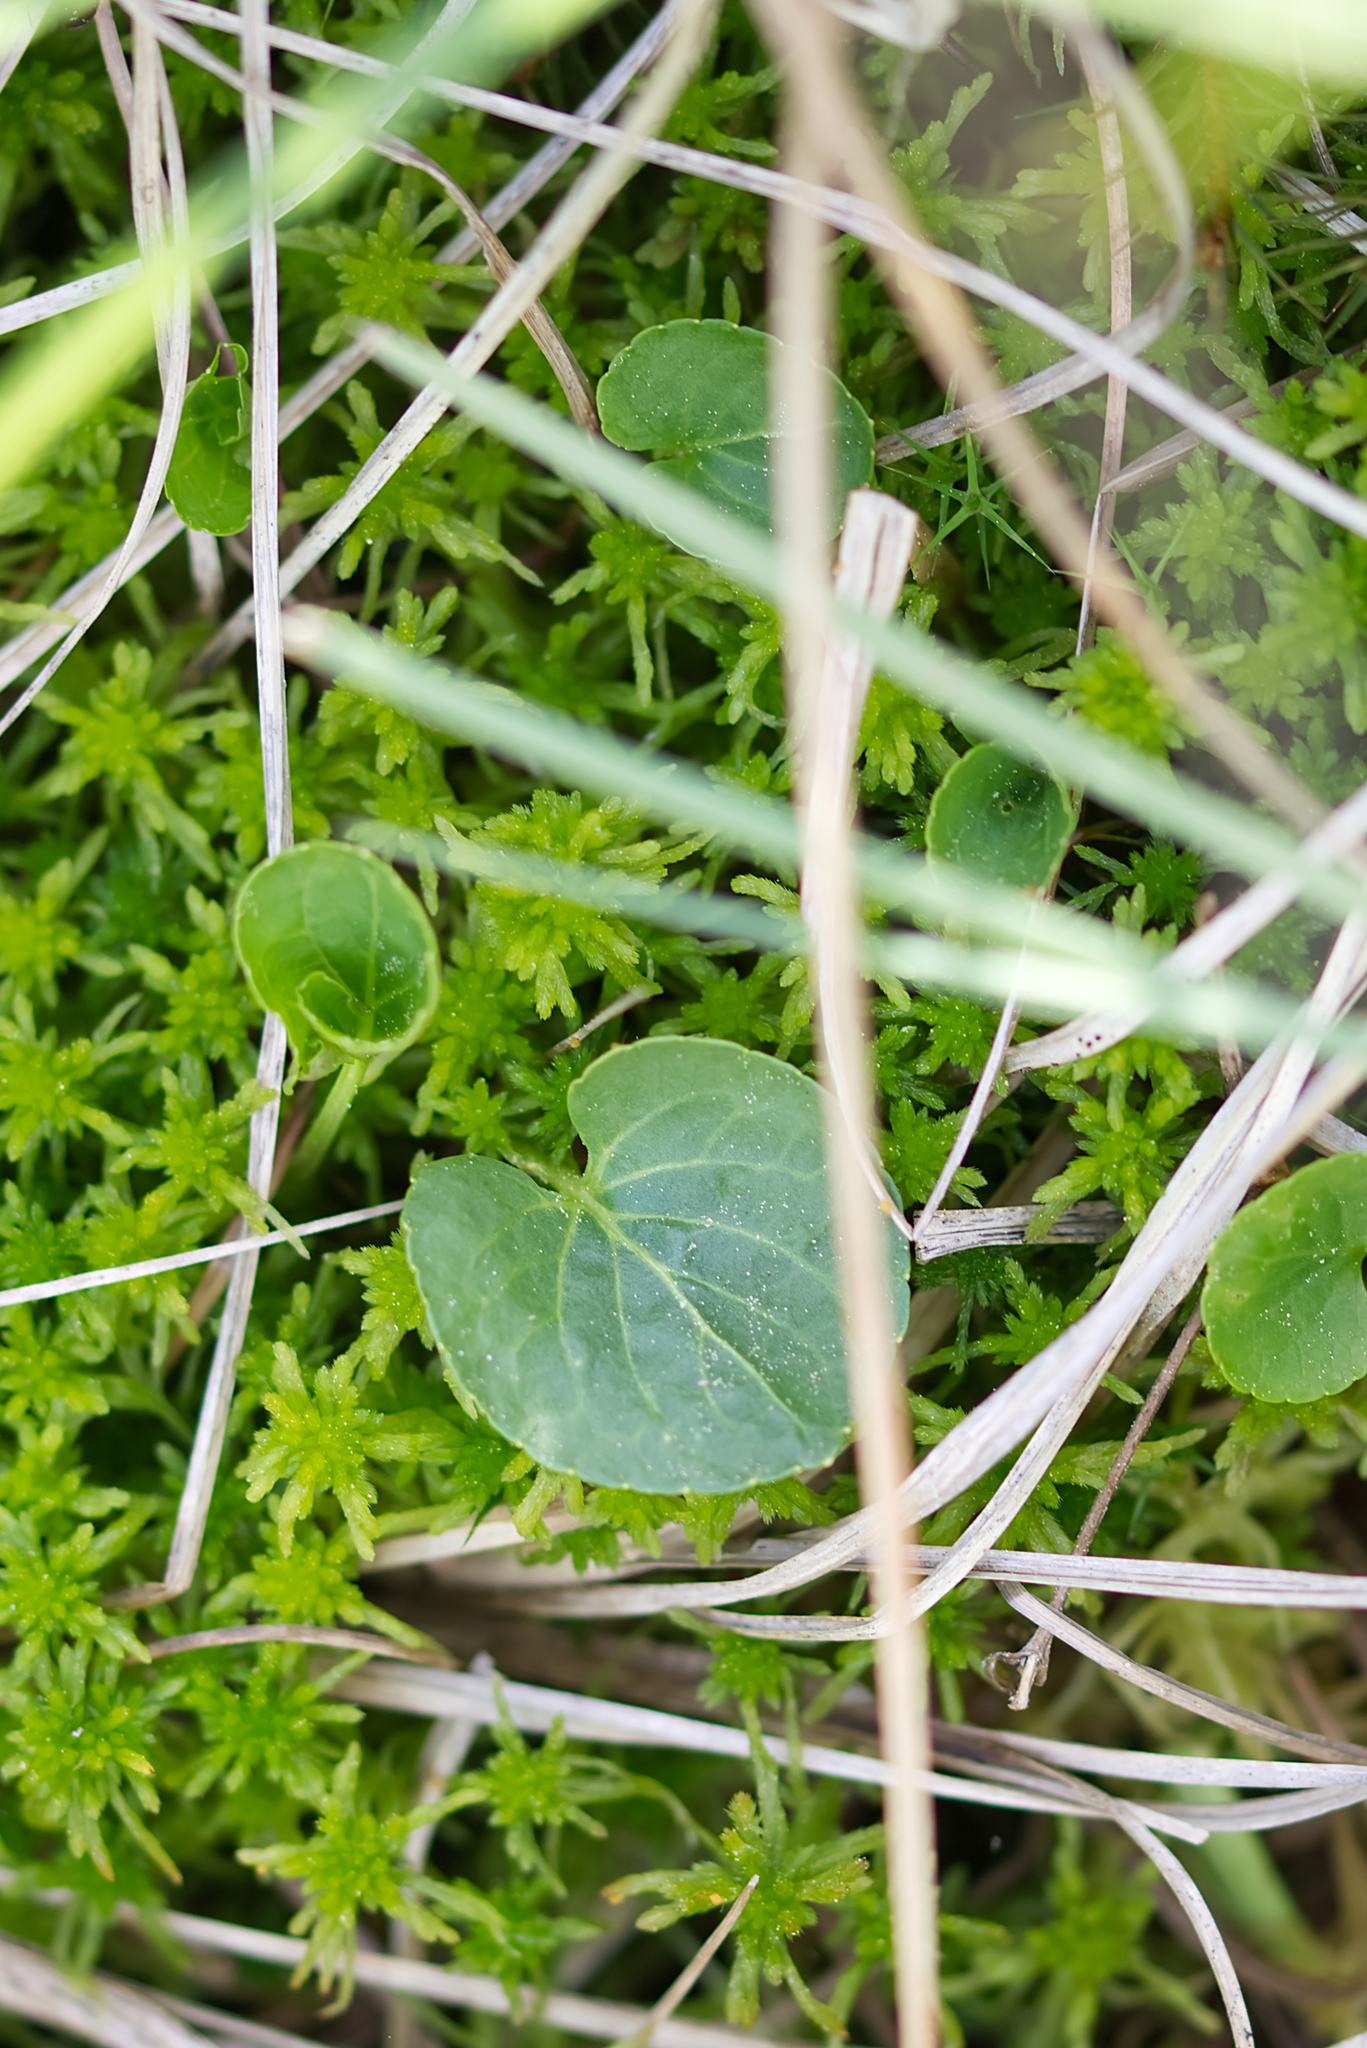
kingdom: Plantae
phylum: Tracheophyta
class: Magnoliopsida
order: Malpighiales
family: Violaceae
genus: Viola
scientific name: Viola palustris
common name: Marsh violet
